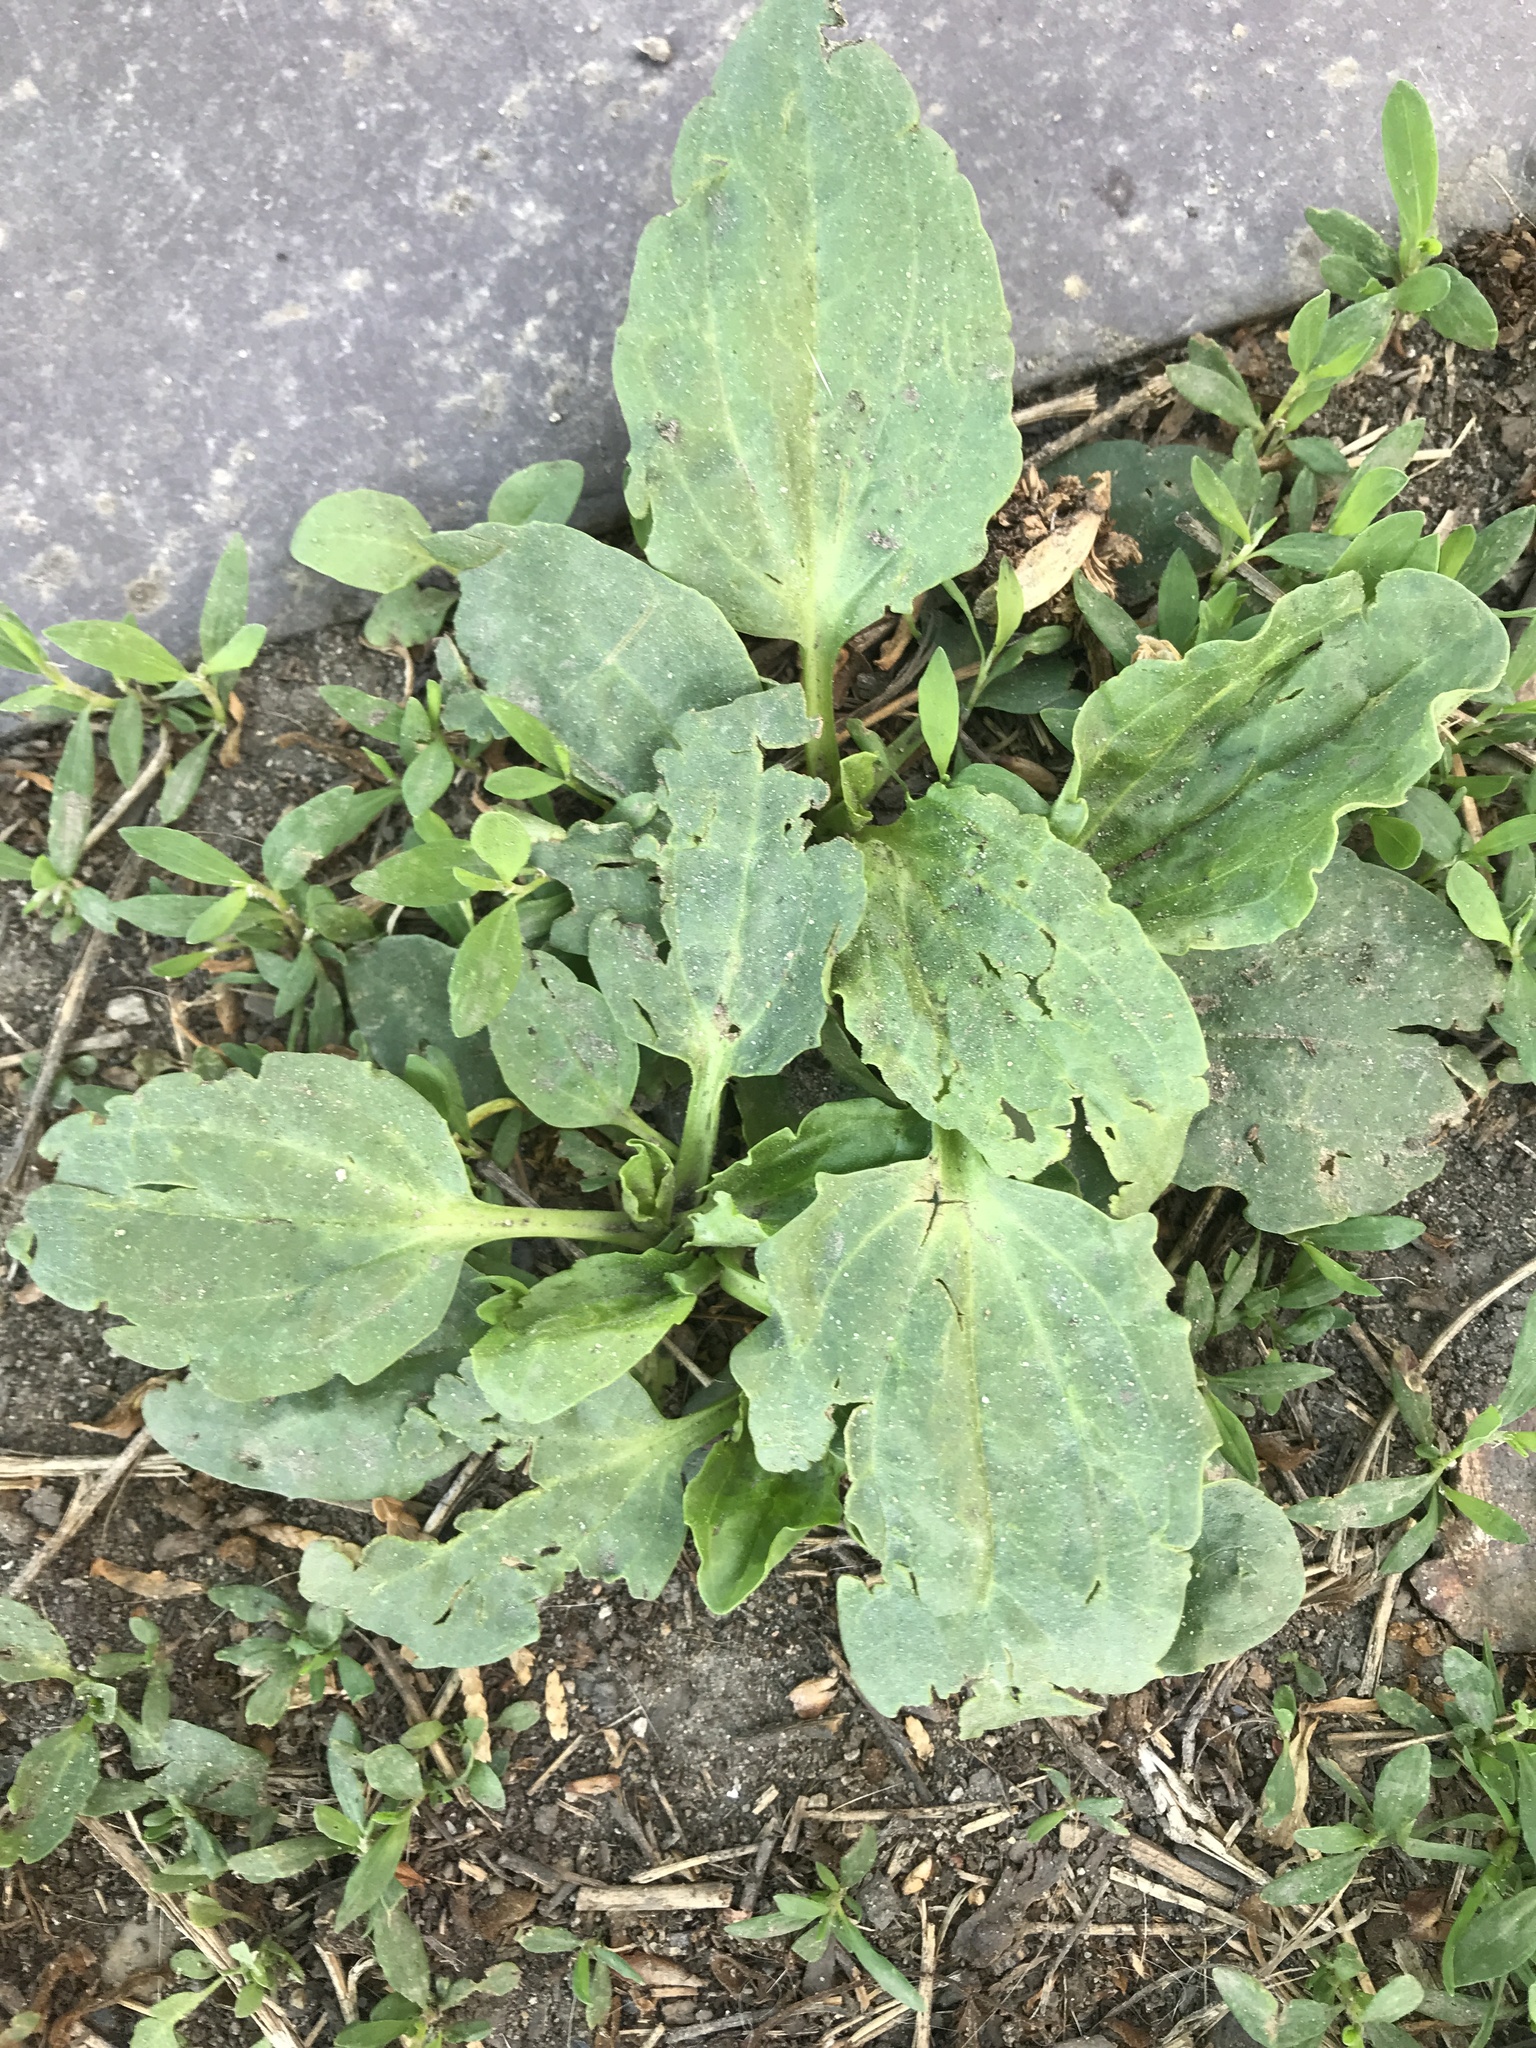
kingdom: Plantae
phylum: Tracheophyta
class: Magnoliopsida
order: Lamiales
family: Plantaginaceae
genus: Plantago
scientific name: Plantago major
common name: Common plantain
